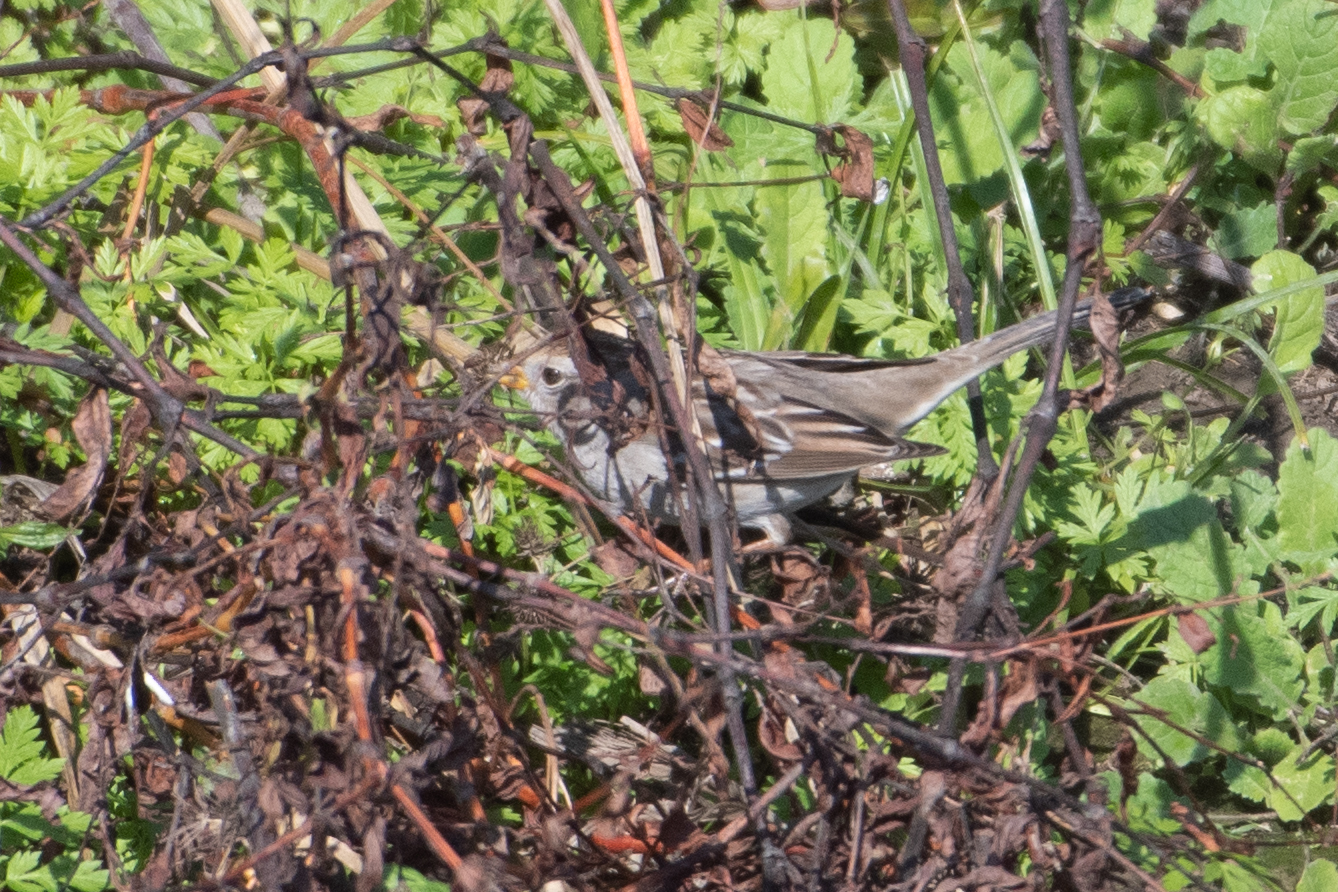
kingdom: Animalia
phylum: Chordata
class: Aves
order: Passeriformes
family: Passerellidae
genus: Zonotrichia
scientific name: Zonotrichia leucophrys
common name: White-crowned sparrow
